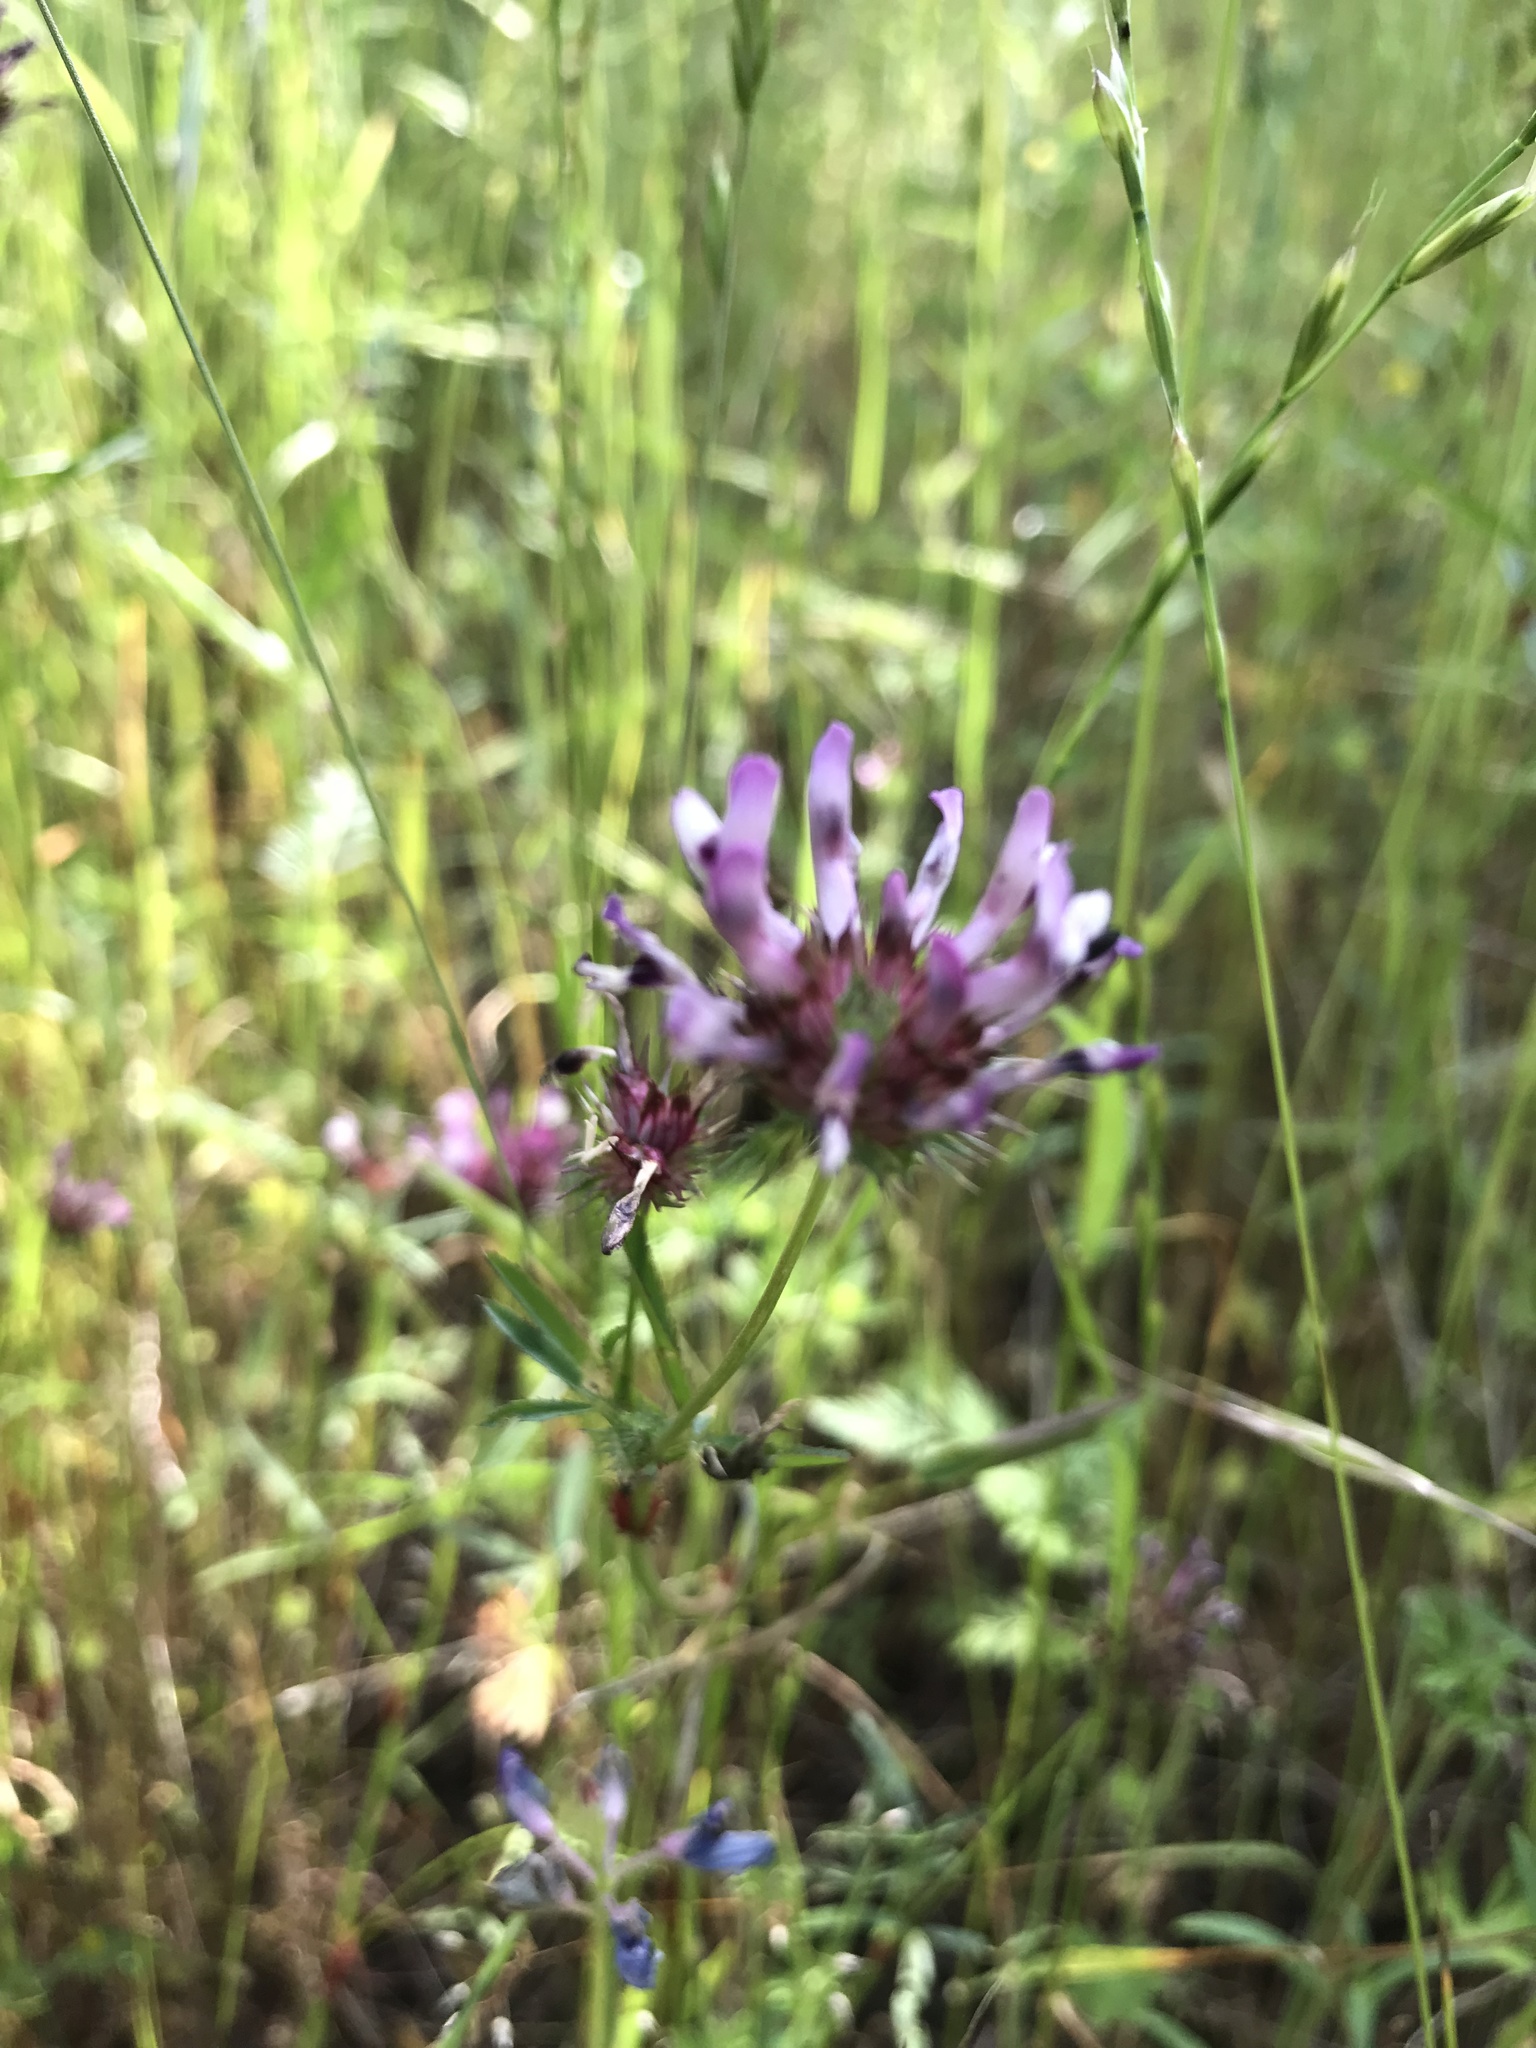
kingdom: Plantae
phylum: Tracheophyta
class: Magnoliopsida
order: Fabales
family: Fabaceae
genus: Trifolium
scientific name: Trifolium willdenovii
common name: Tomcat clover
